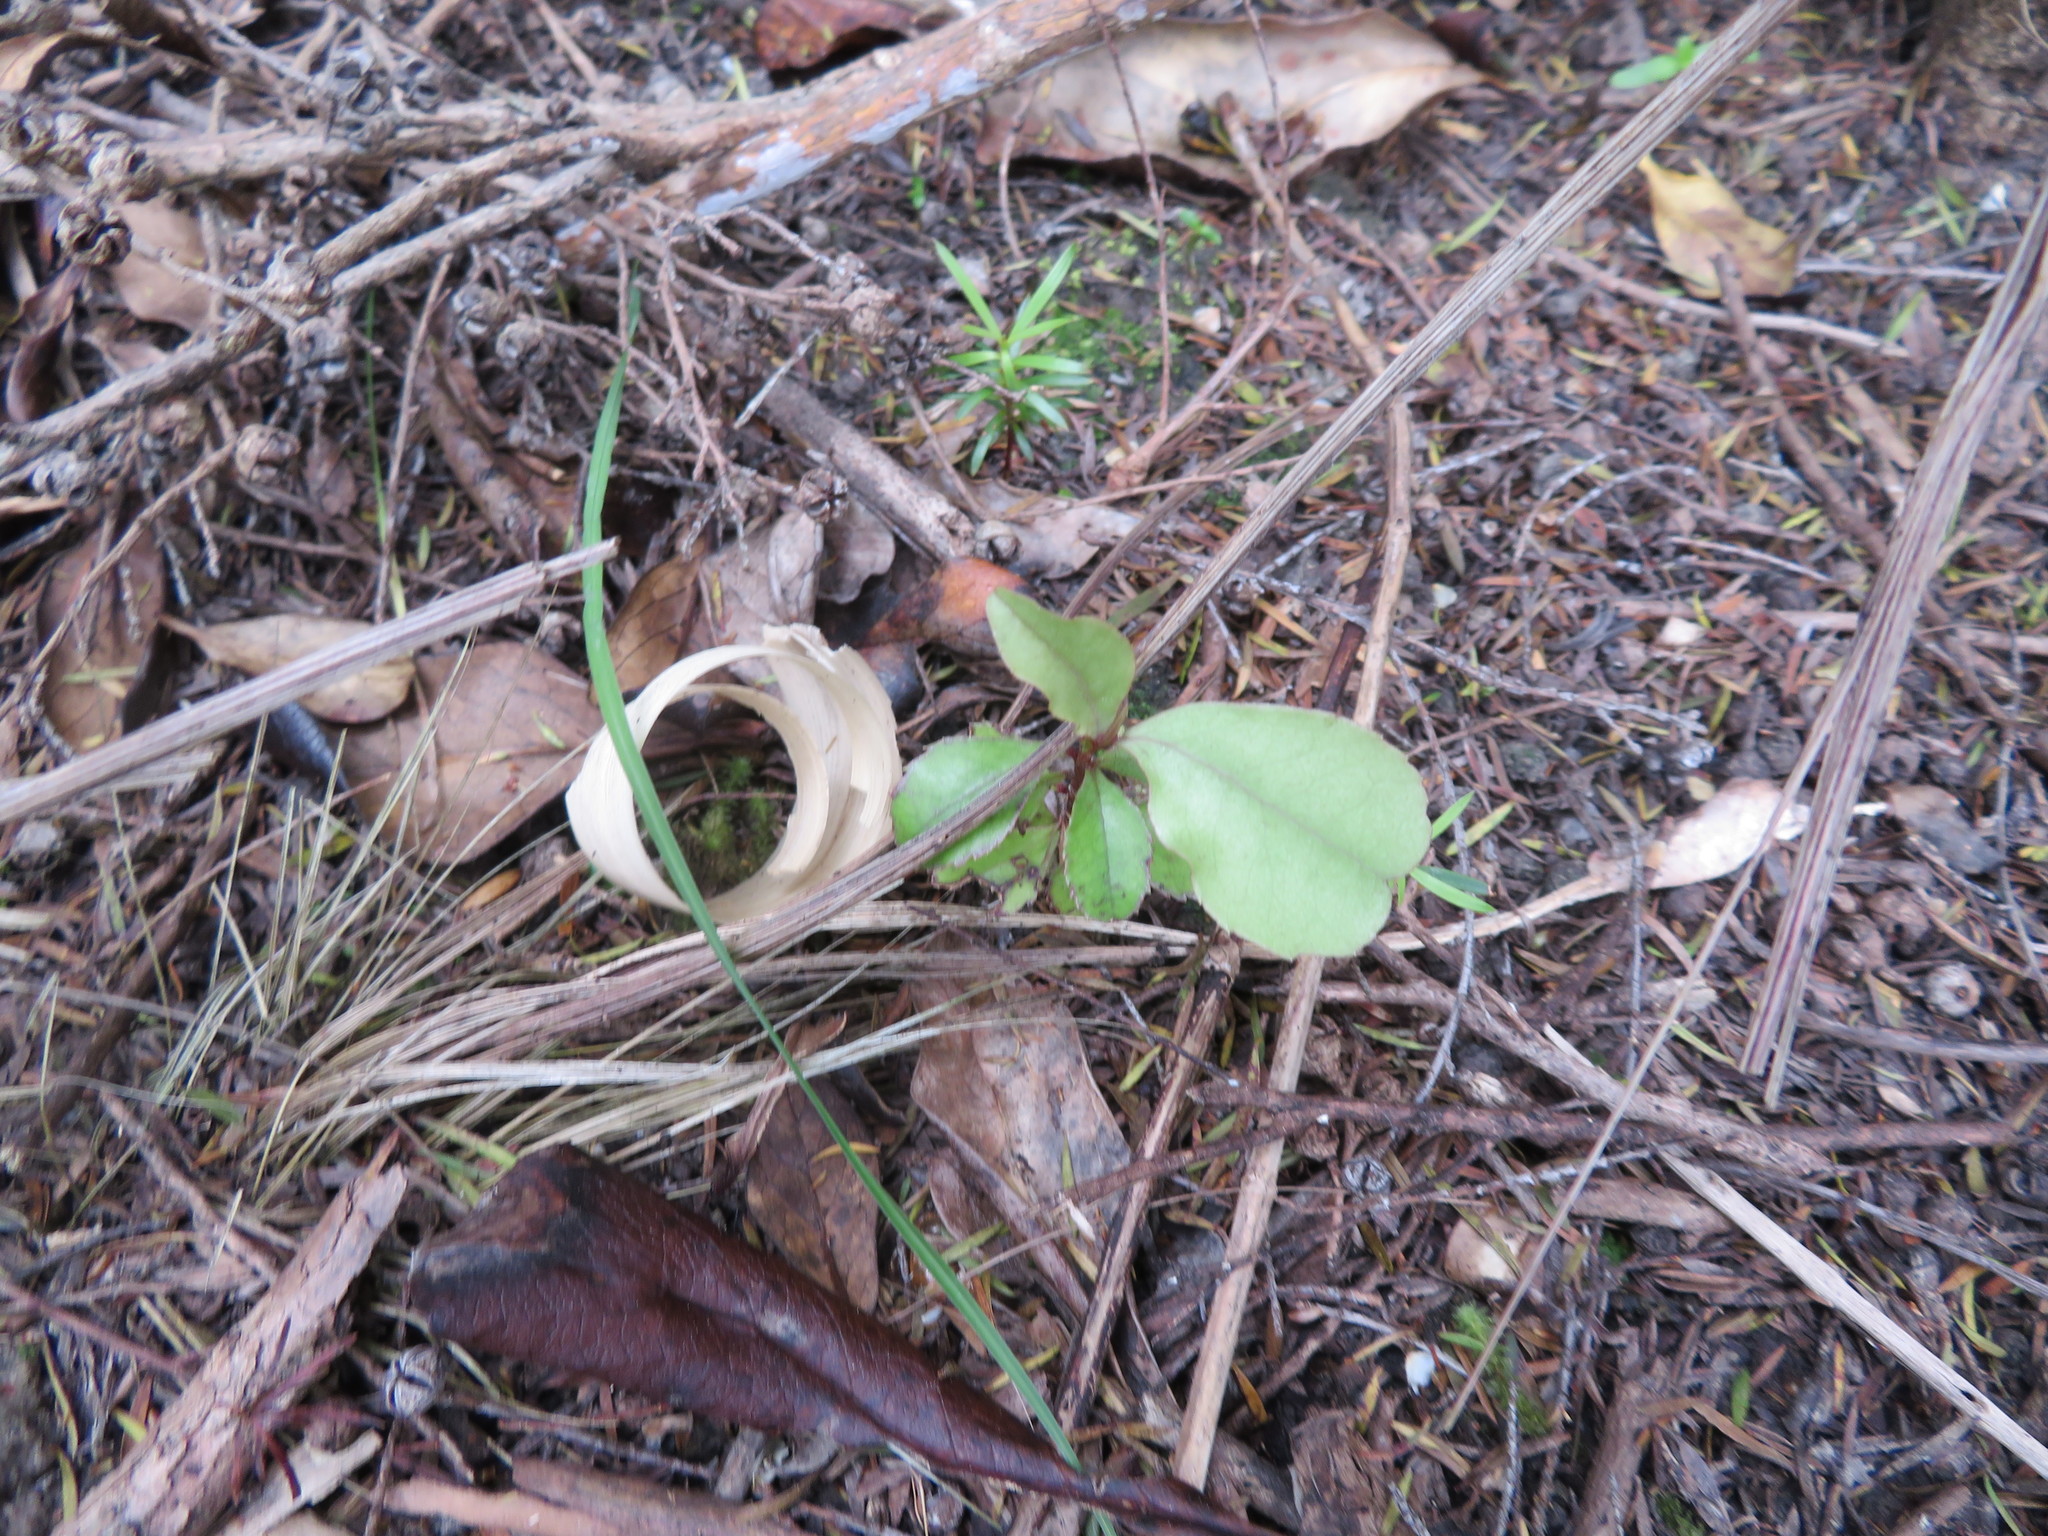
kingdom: Plantae
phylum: Tracheophyta
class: Magnoliopsida
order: Ericales
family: Primulaceae
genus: Myrsine
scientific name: Myrsine australis
